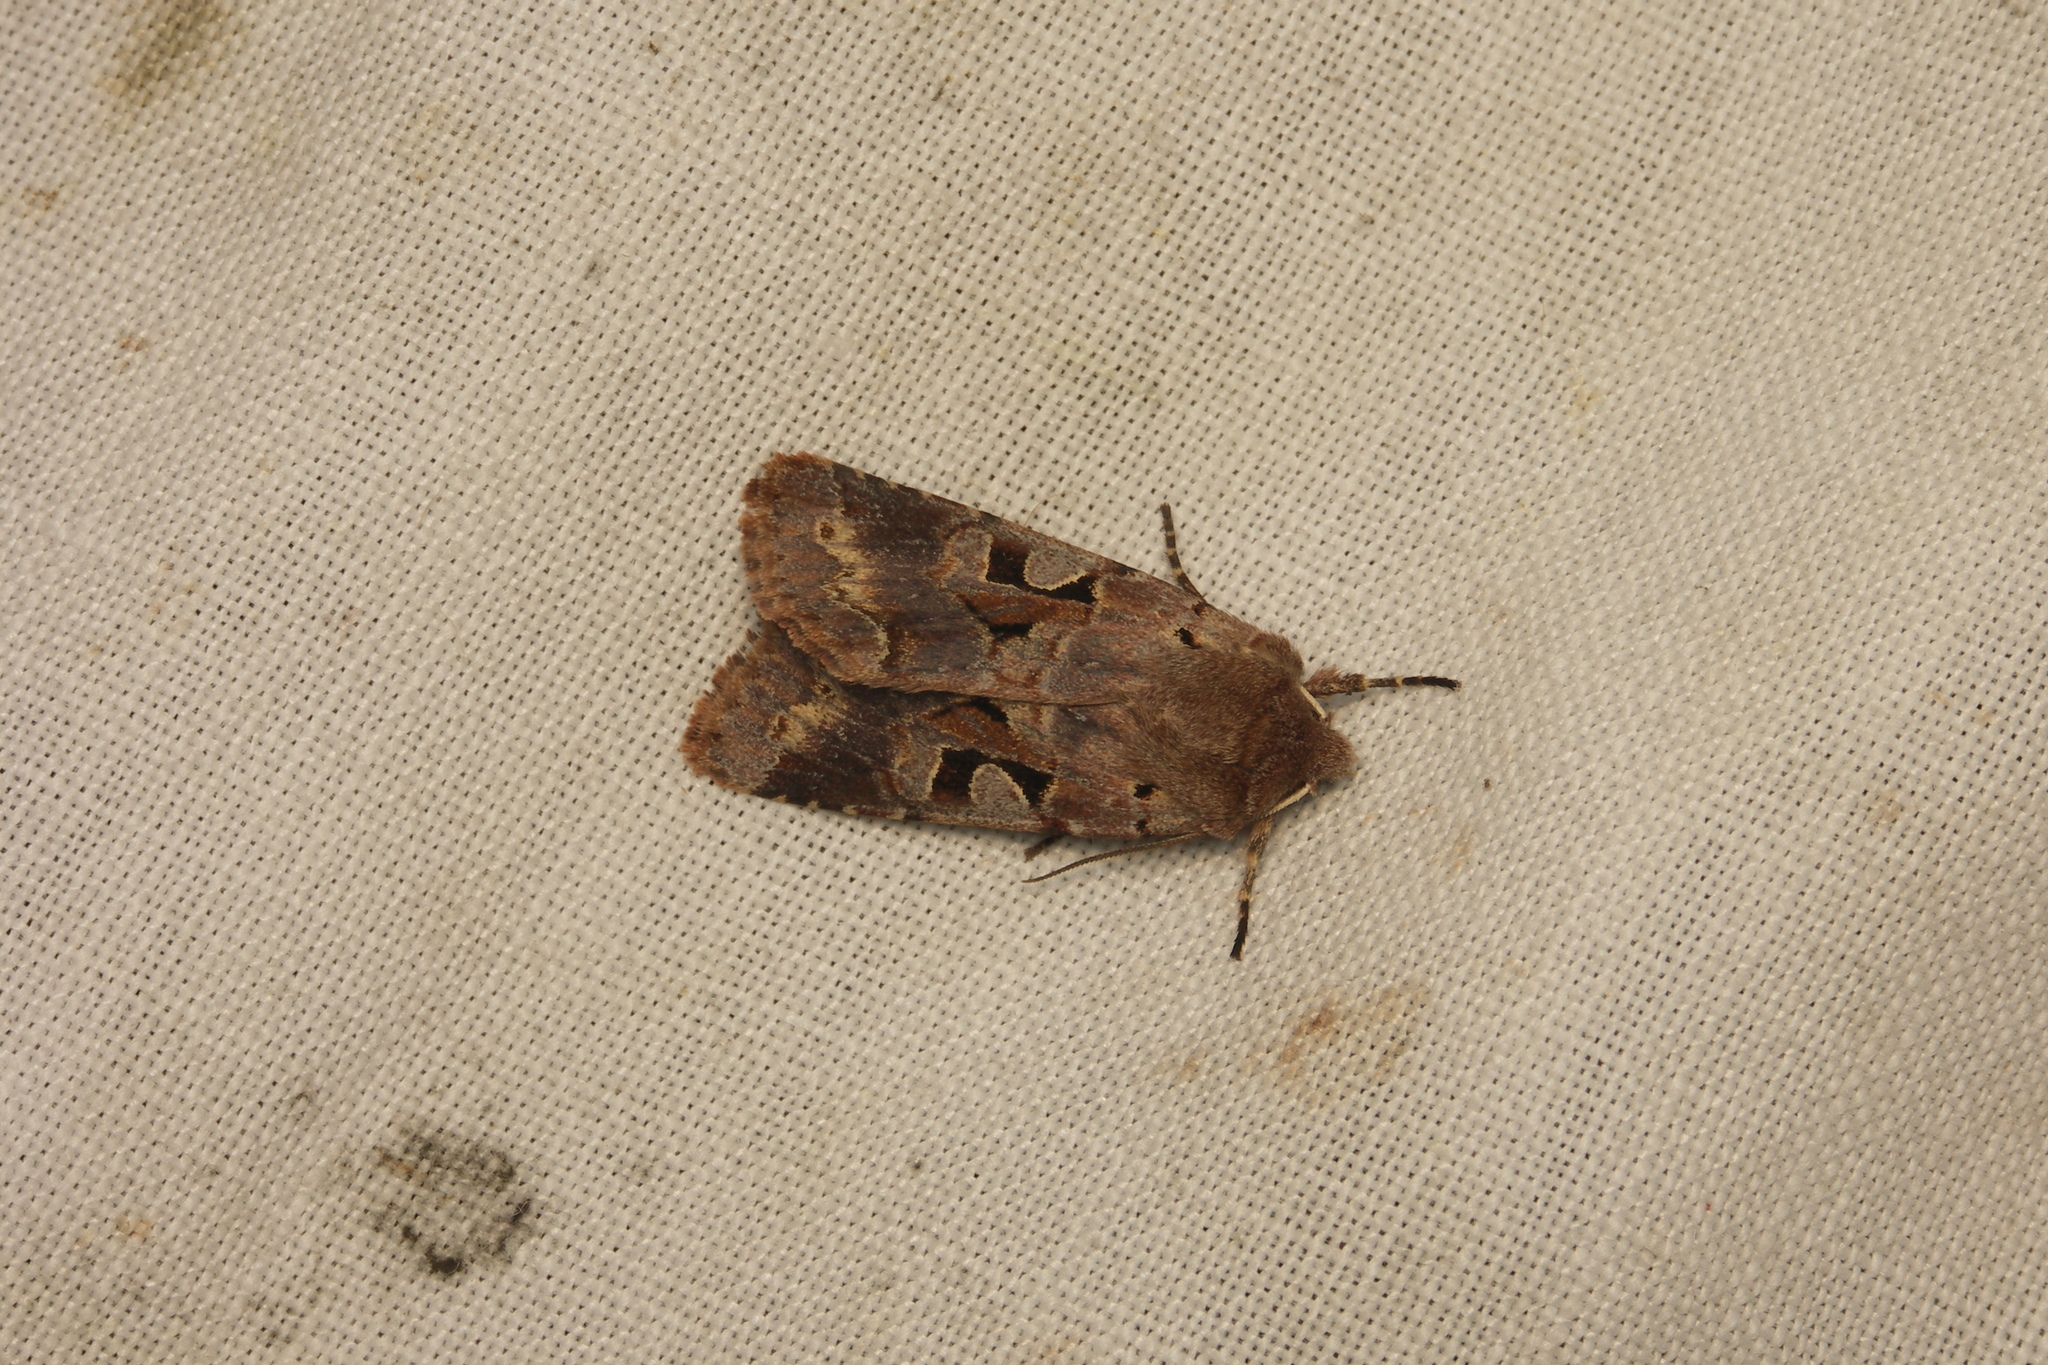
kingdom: Animalia
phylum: Arthropoda
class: Insecta
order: Lepidoptera
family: Noctuidae
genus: Orthosia
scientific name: Orthosia gothica
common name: Hebrew character
